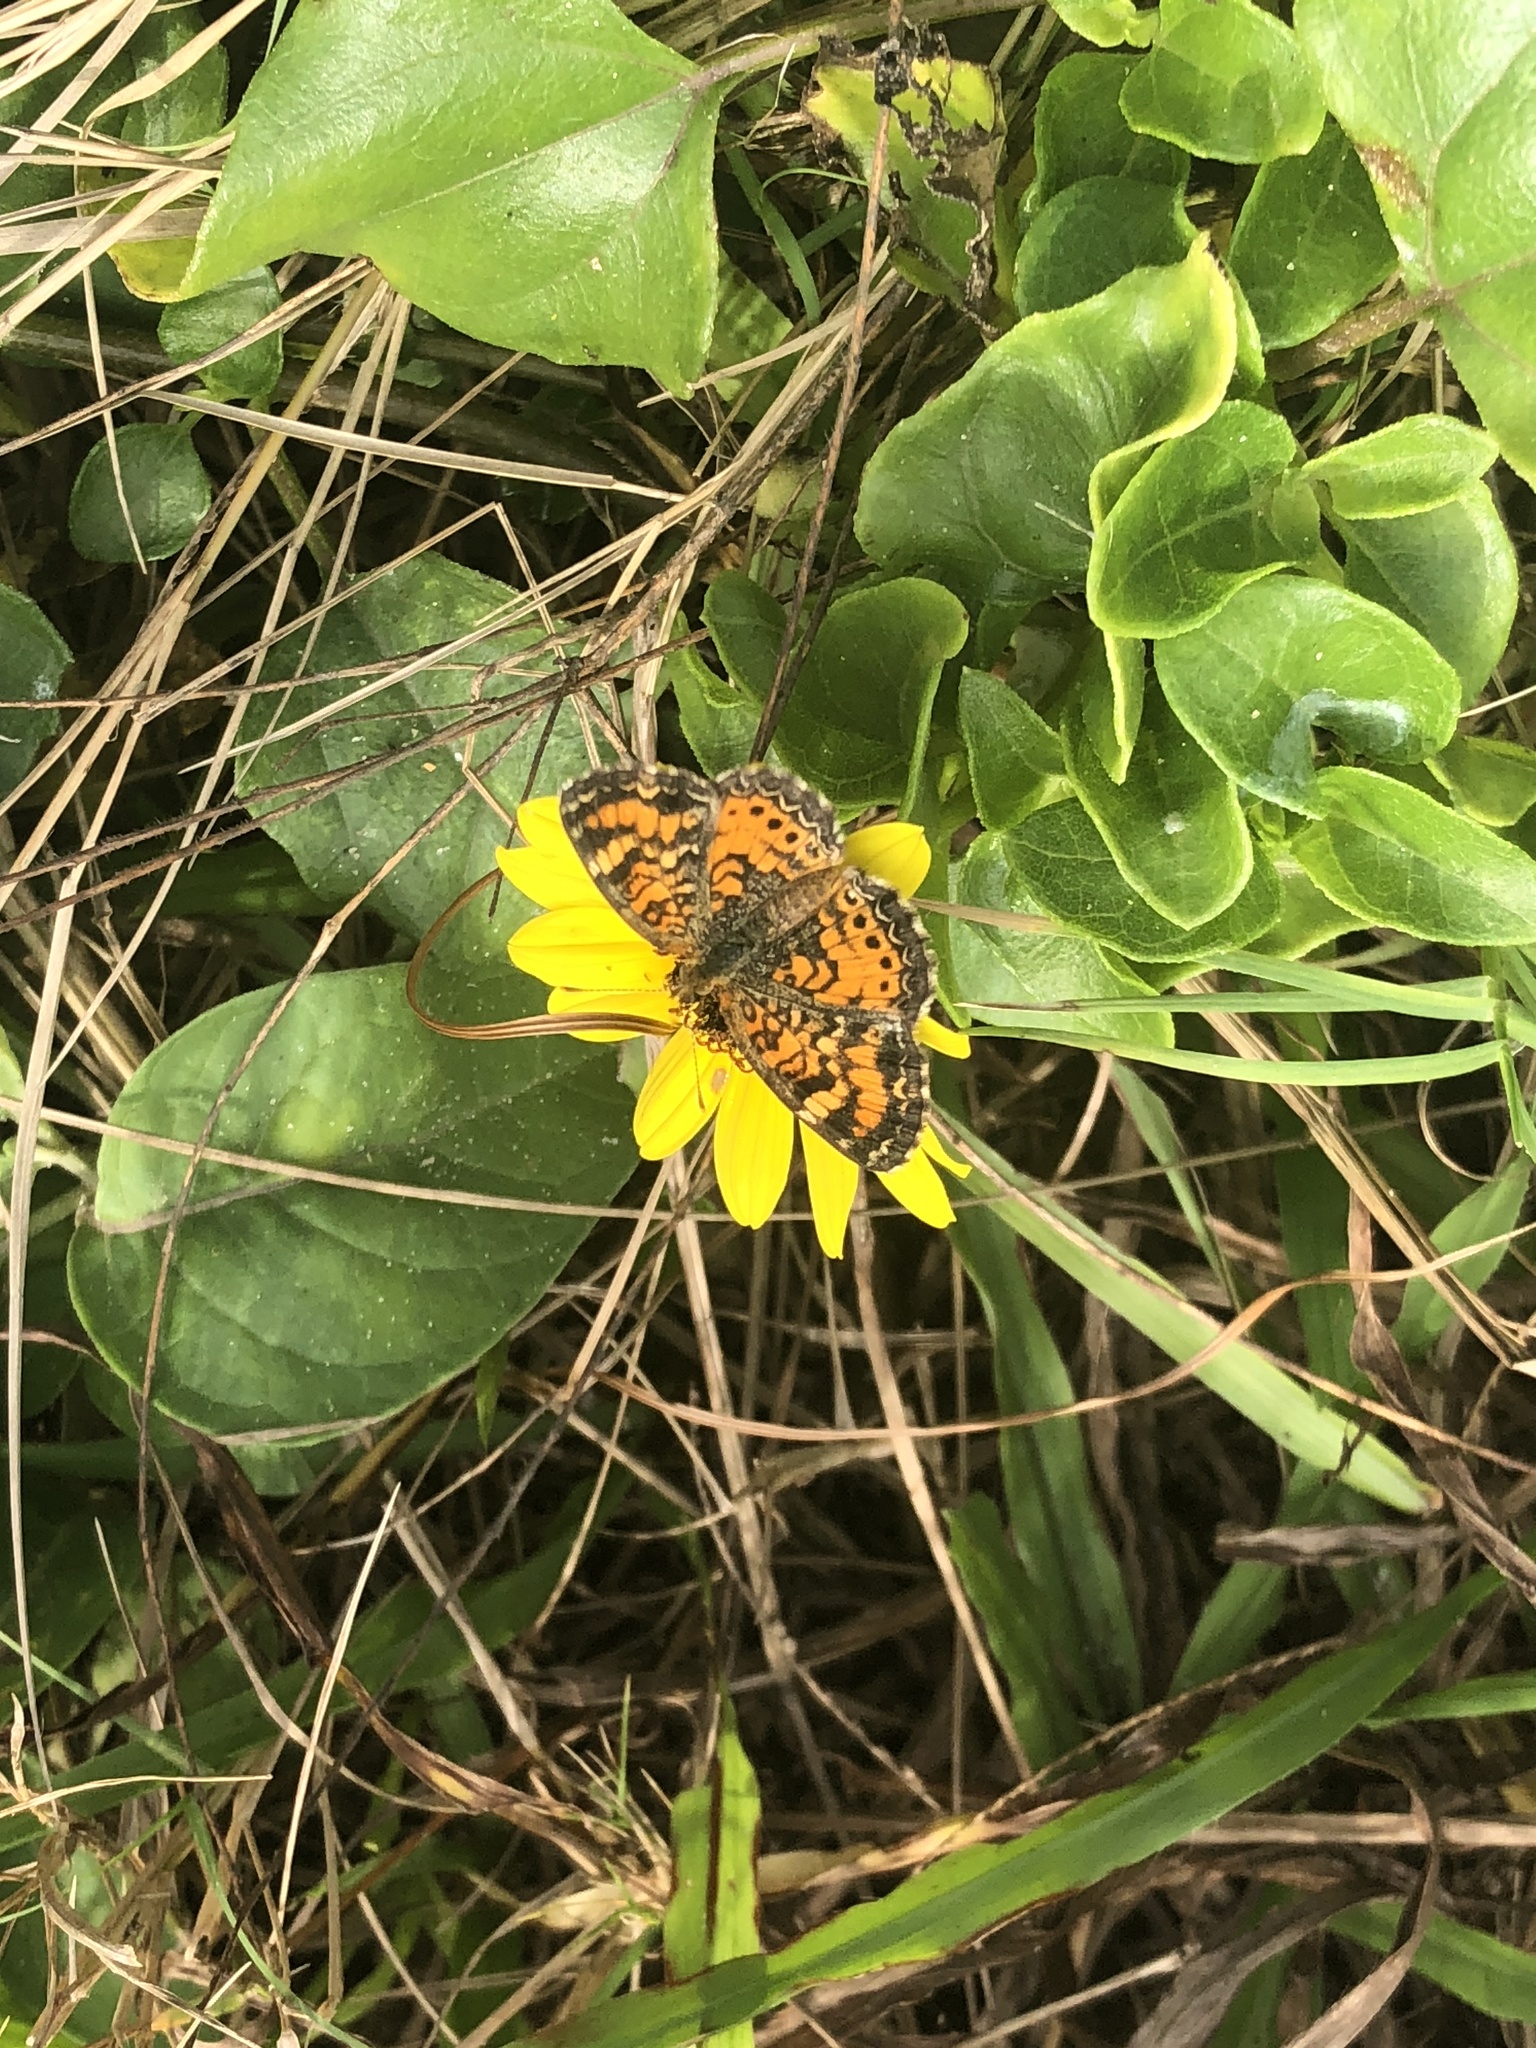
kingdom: Animalia
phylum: Arthropoda
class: Insecta
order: Lepidoptera
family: Nymphalidae
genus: Phyciodes
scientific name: Phyciodes phaon
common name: Phaon crescent
